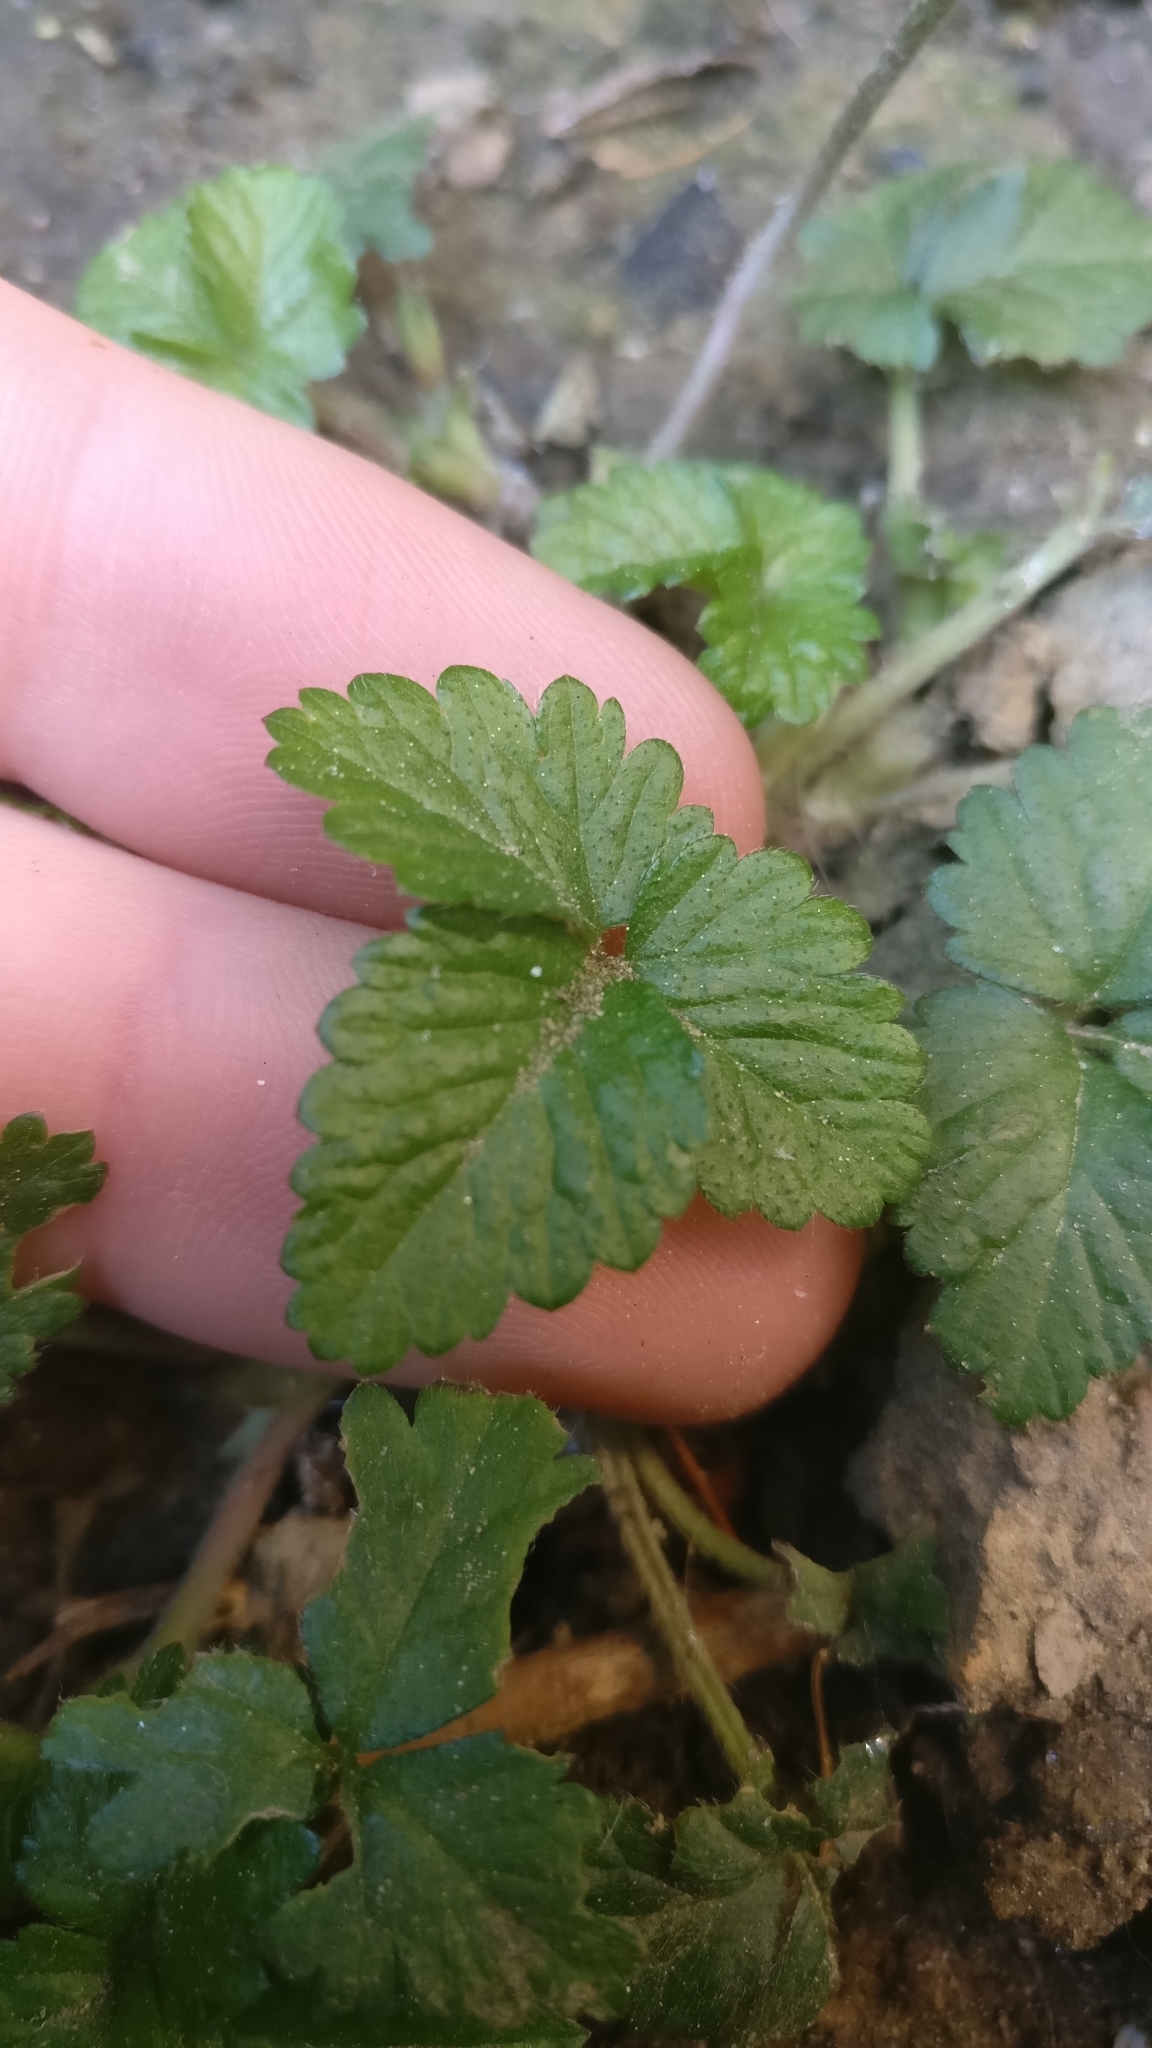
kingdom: Plantae
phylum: Tracheophyta
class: Magnoliopsida
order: Rosales
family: Rosaceae
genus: Potentilla
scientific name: Potentilla indica
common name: Yellow-flowered strawberry
